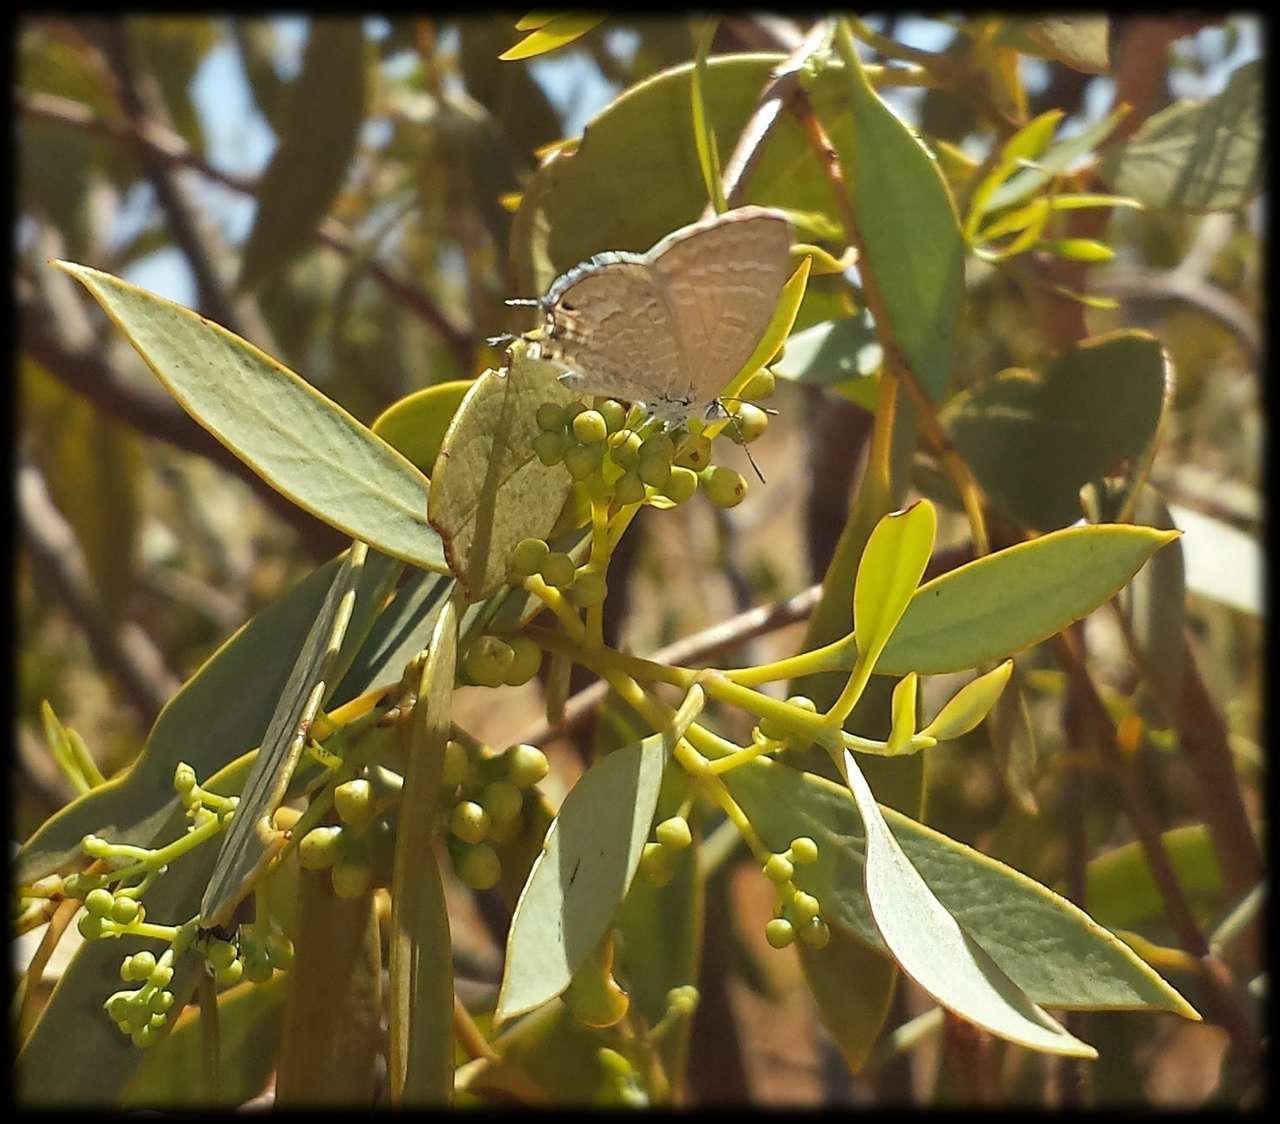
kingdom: Animalia
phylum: Arthropoda
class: Insecta
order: Lepidoptera
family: Lycaenidae
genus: Theclinesthes
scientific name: Theclinesthes miskini
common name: Wattle blue
